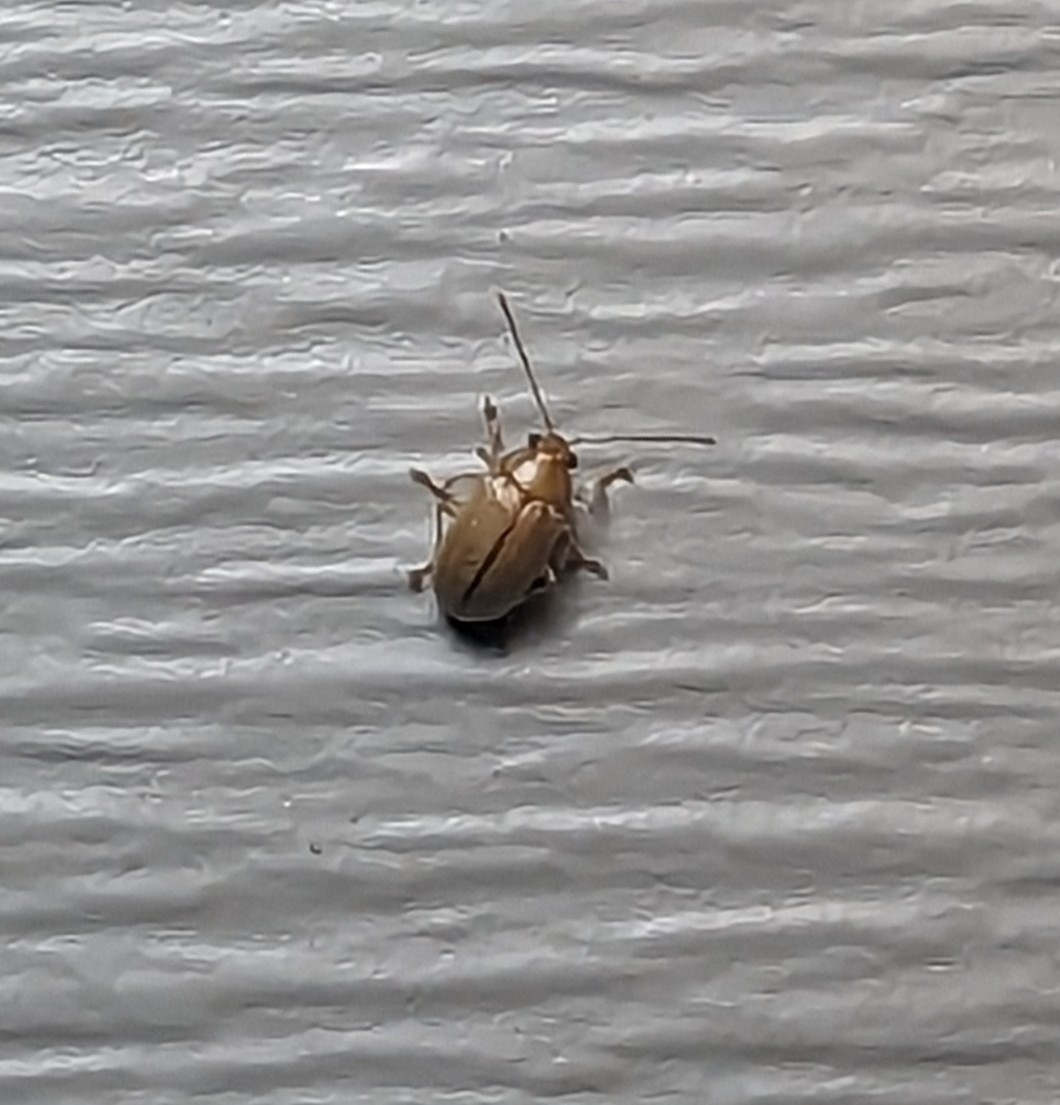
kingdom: Animalia
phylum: Arthropoda
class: Insecta
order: Coleoptera
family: Chrysomelidae
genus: Colaspis
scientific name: Colaspis brunnea
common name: Grape colaspis
